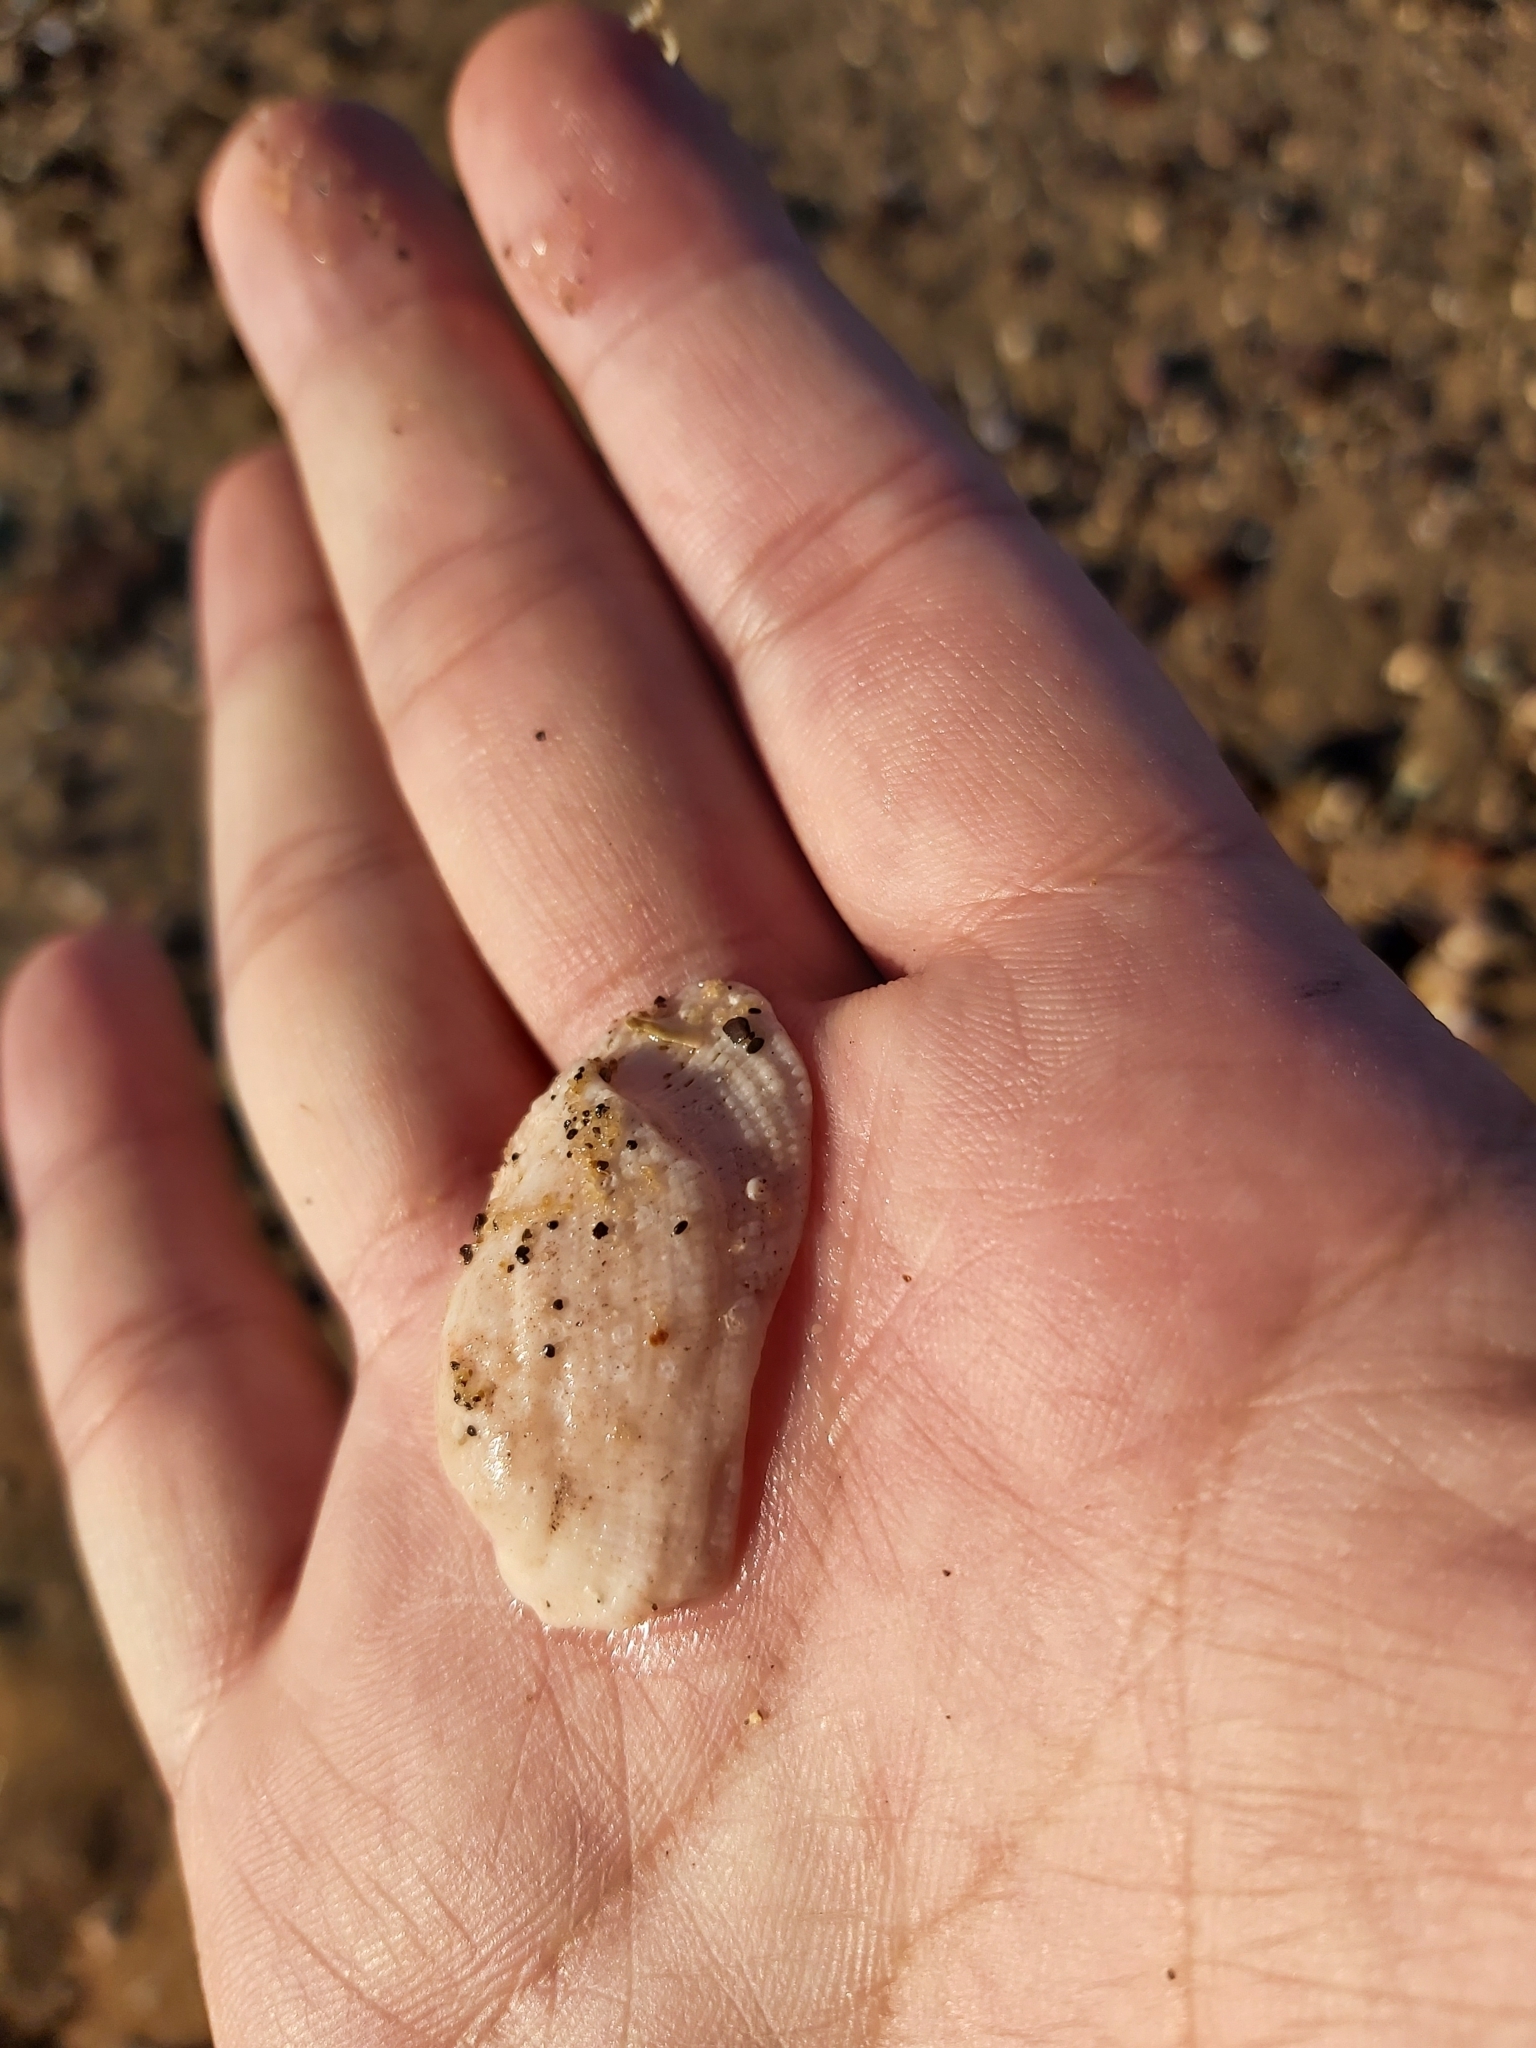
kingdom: Animalia
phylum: Mollusca
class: Bivalvia
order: Arcida
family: Arcidae
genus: Barbatia
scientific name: Barbatia pistachia
